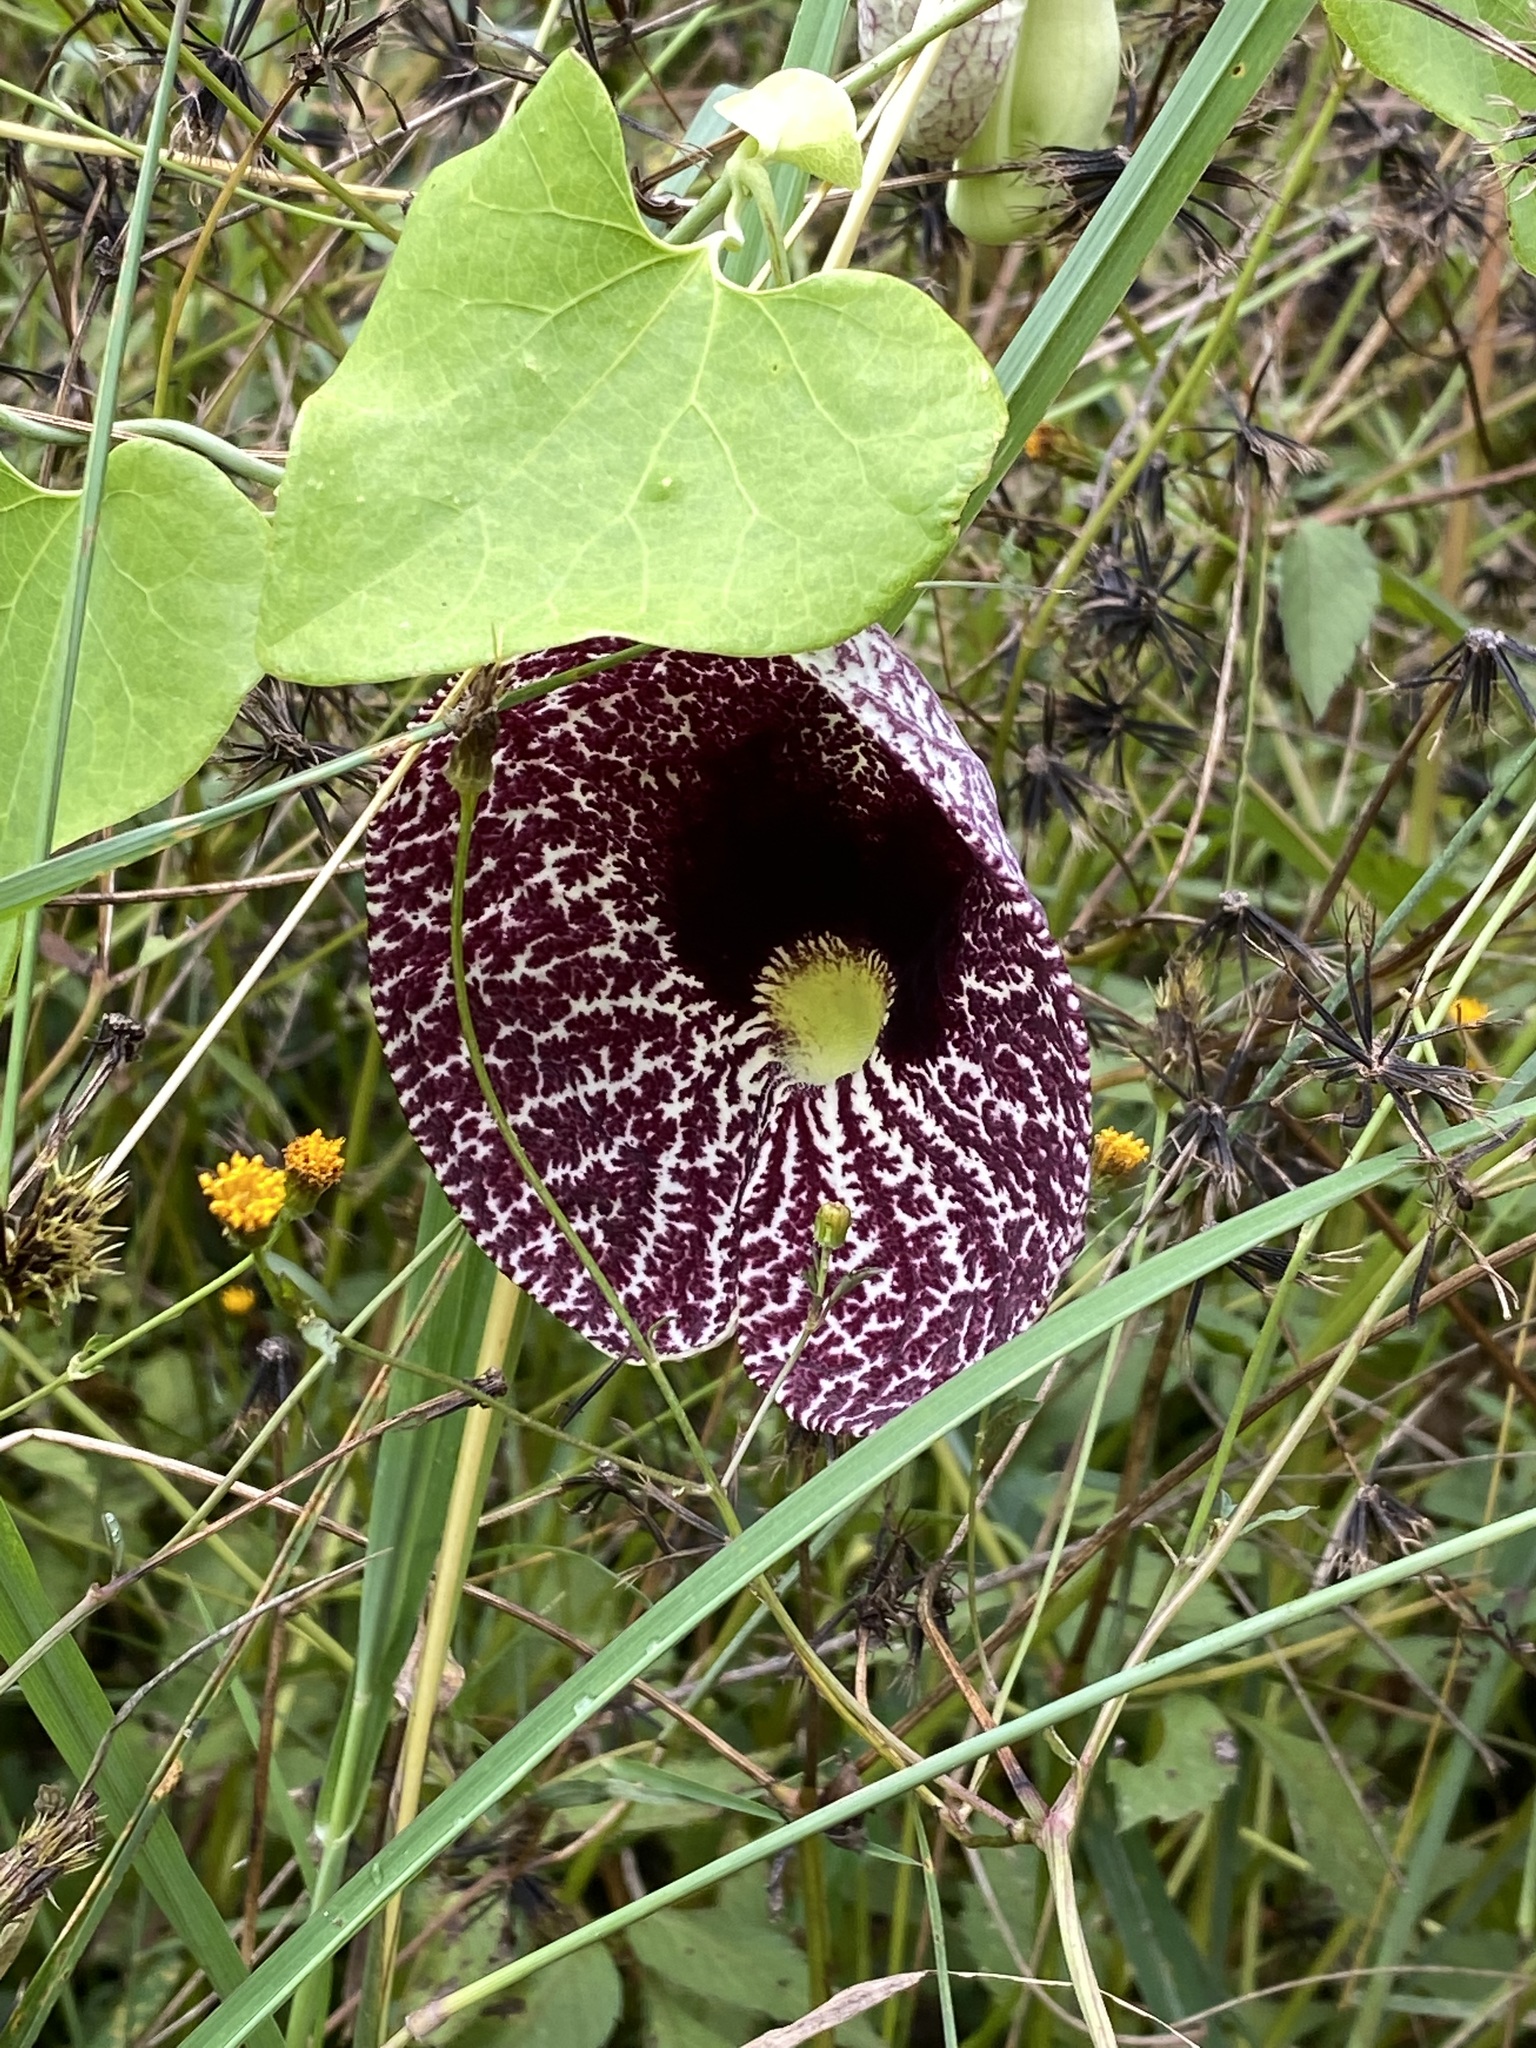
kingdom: Plantae
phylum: Tracheophyta
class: Magnoliopsida
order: Piperales
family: Aristolochiaceae
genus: Aristolochia
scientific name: Aristolochia littoralis
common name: Duck
